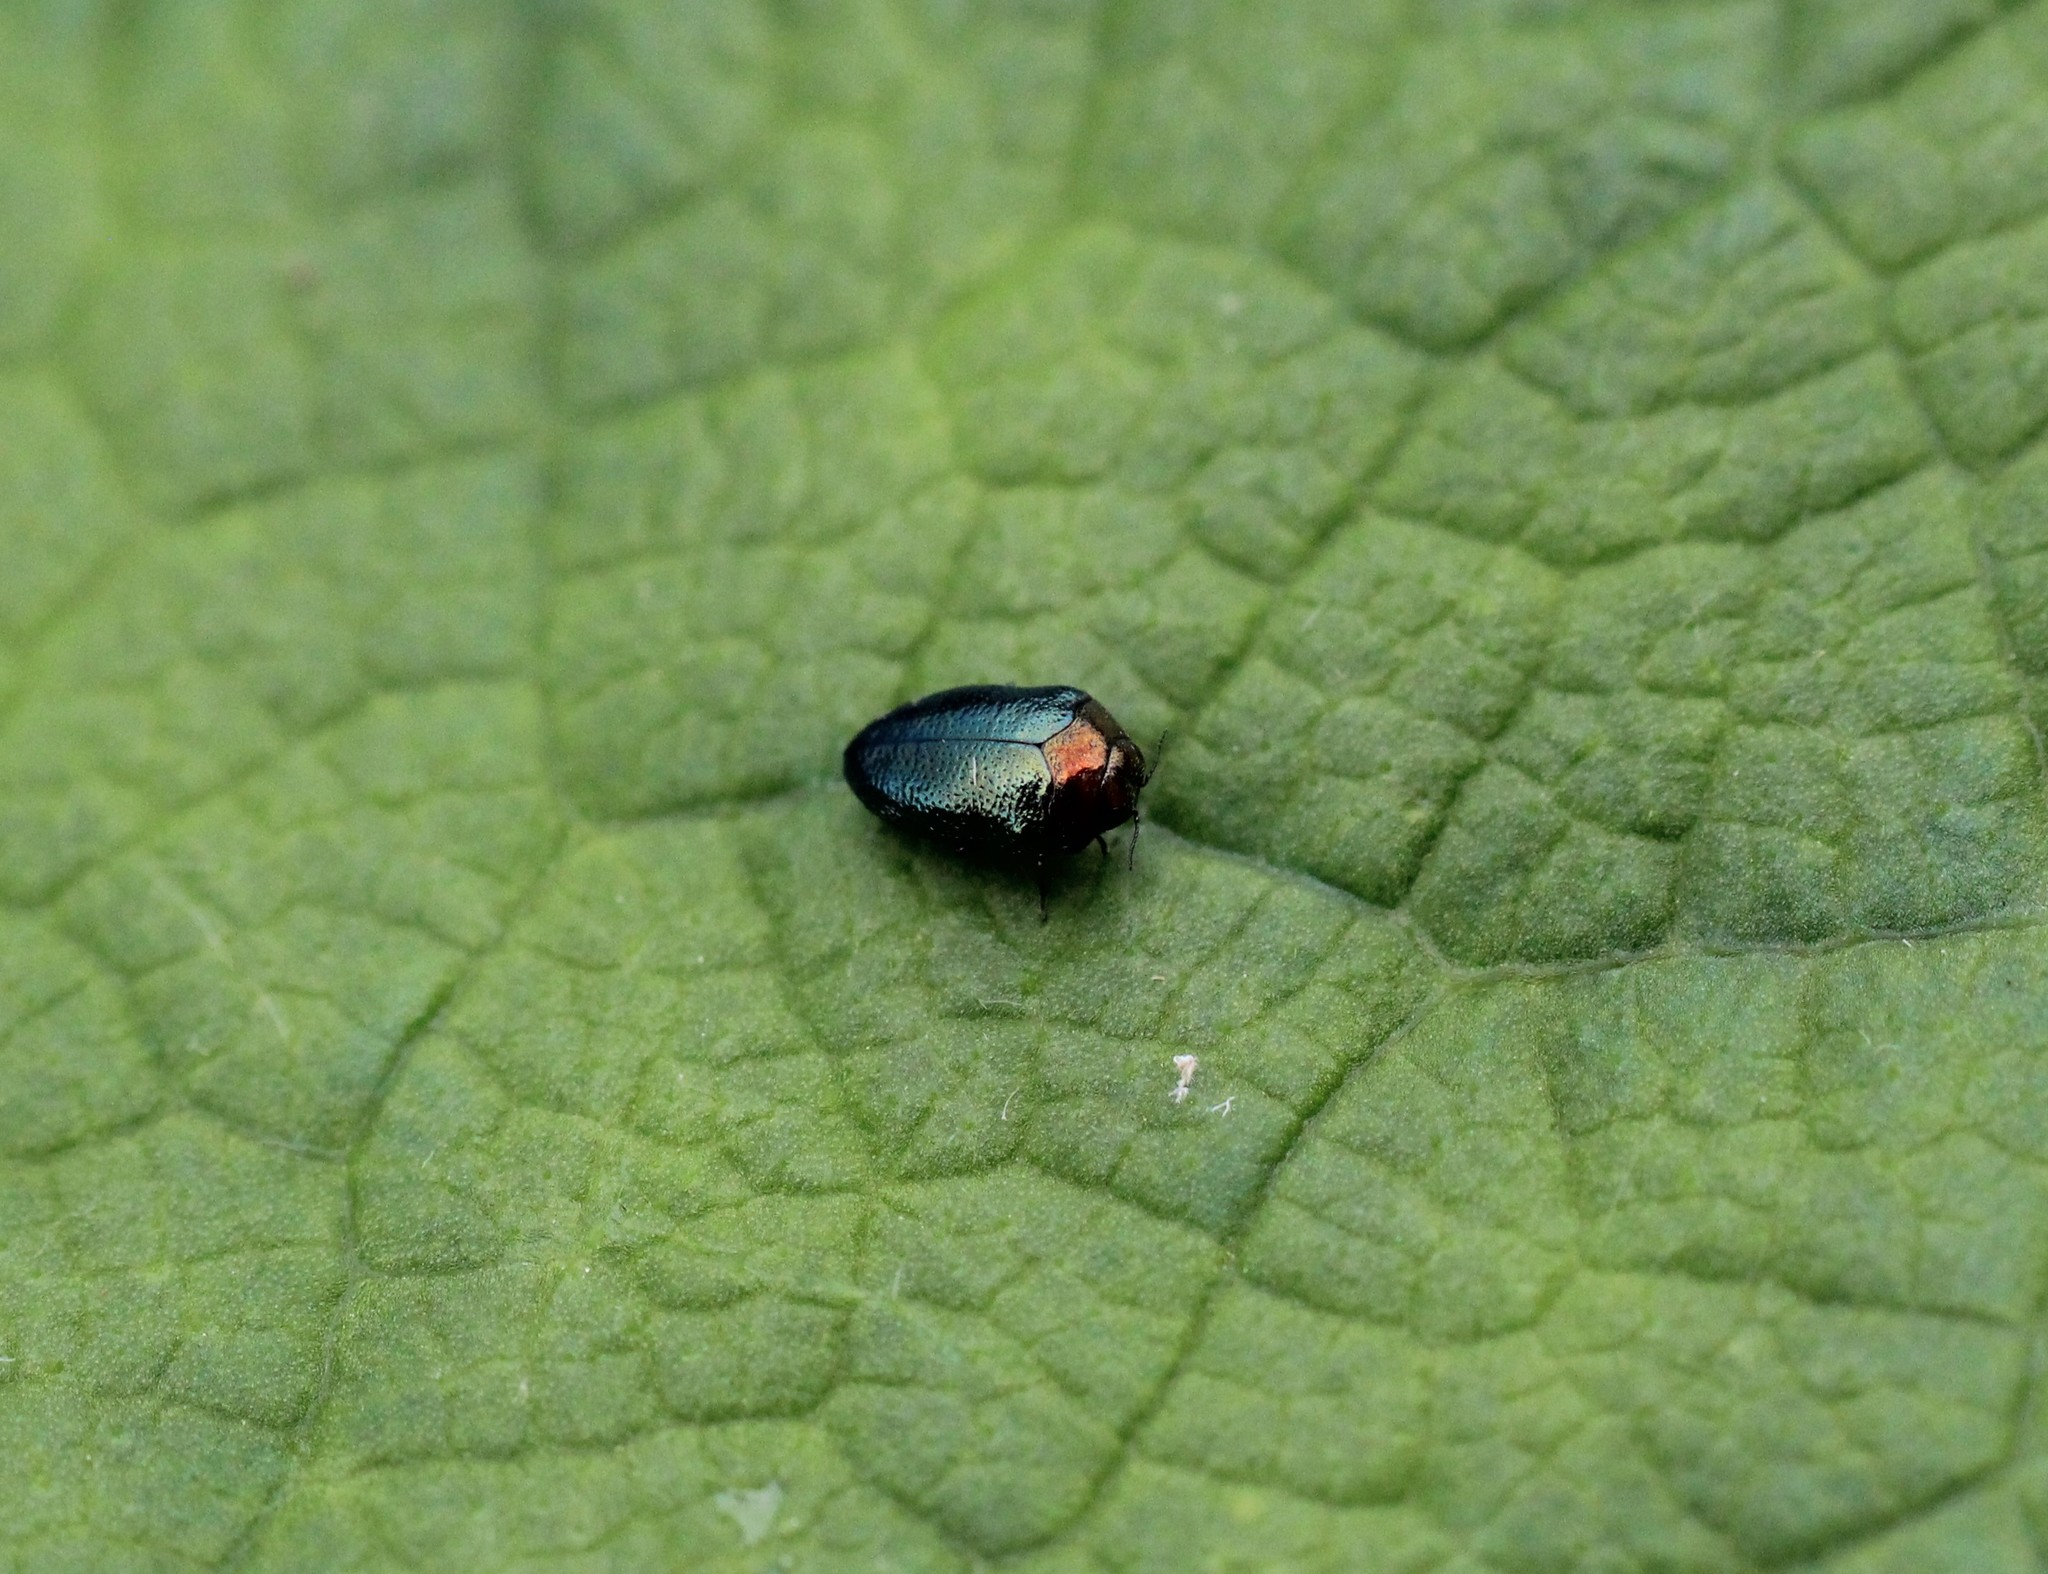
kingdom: Animalia
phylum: Arthropoda
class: Insecta
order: Coleoptera
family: Buprestidae
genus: Trachys
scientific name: Trachys troglodytiformis
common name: Metallic wood-boring beetle
